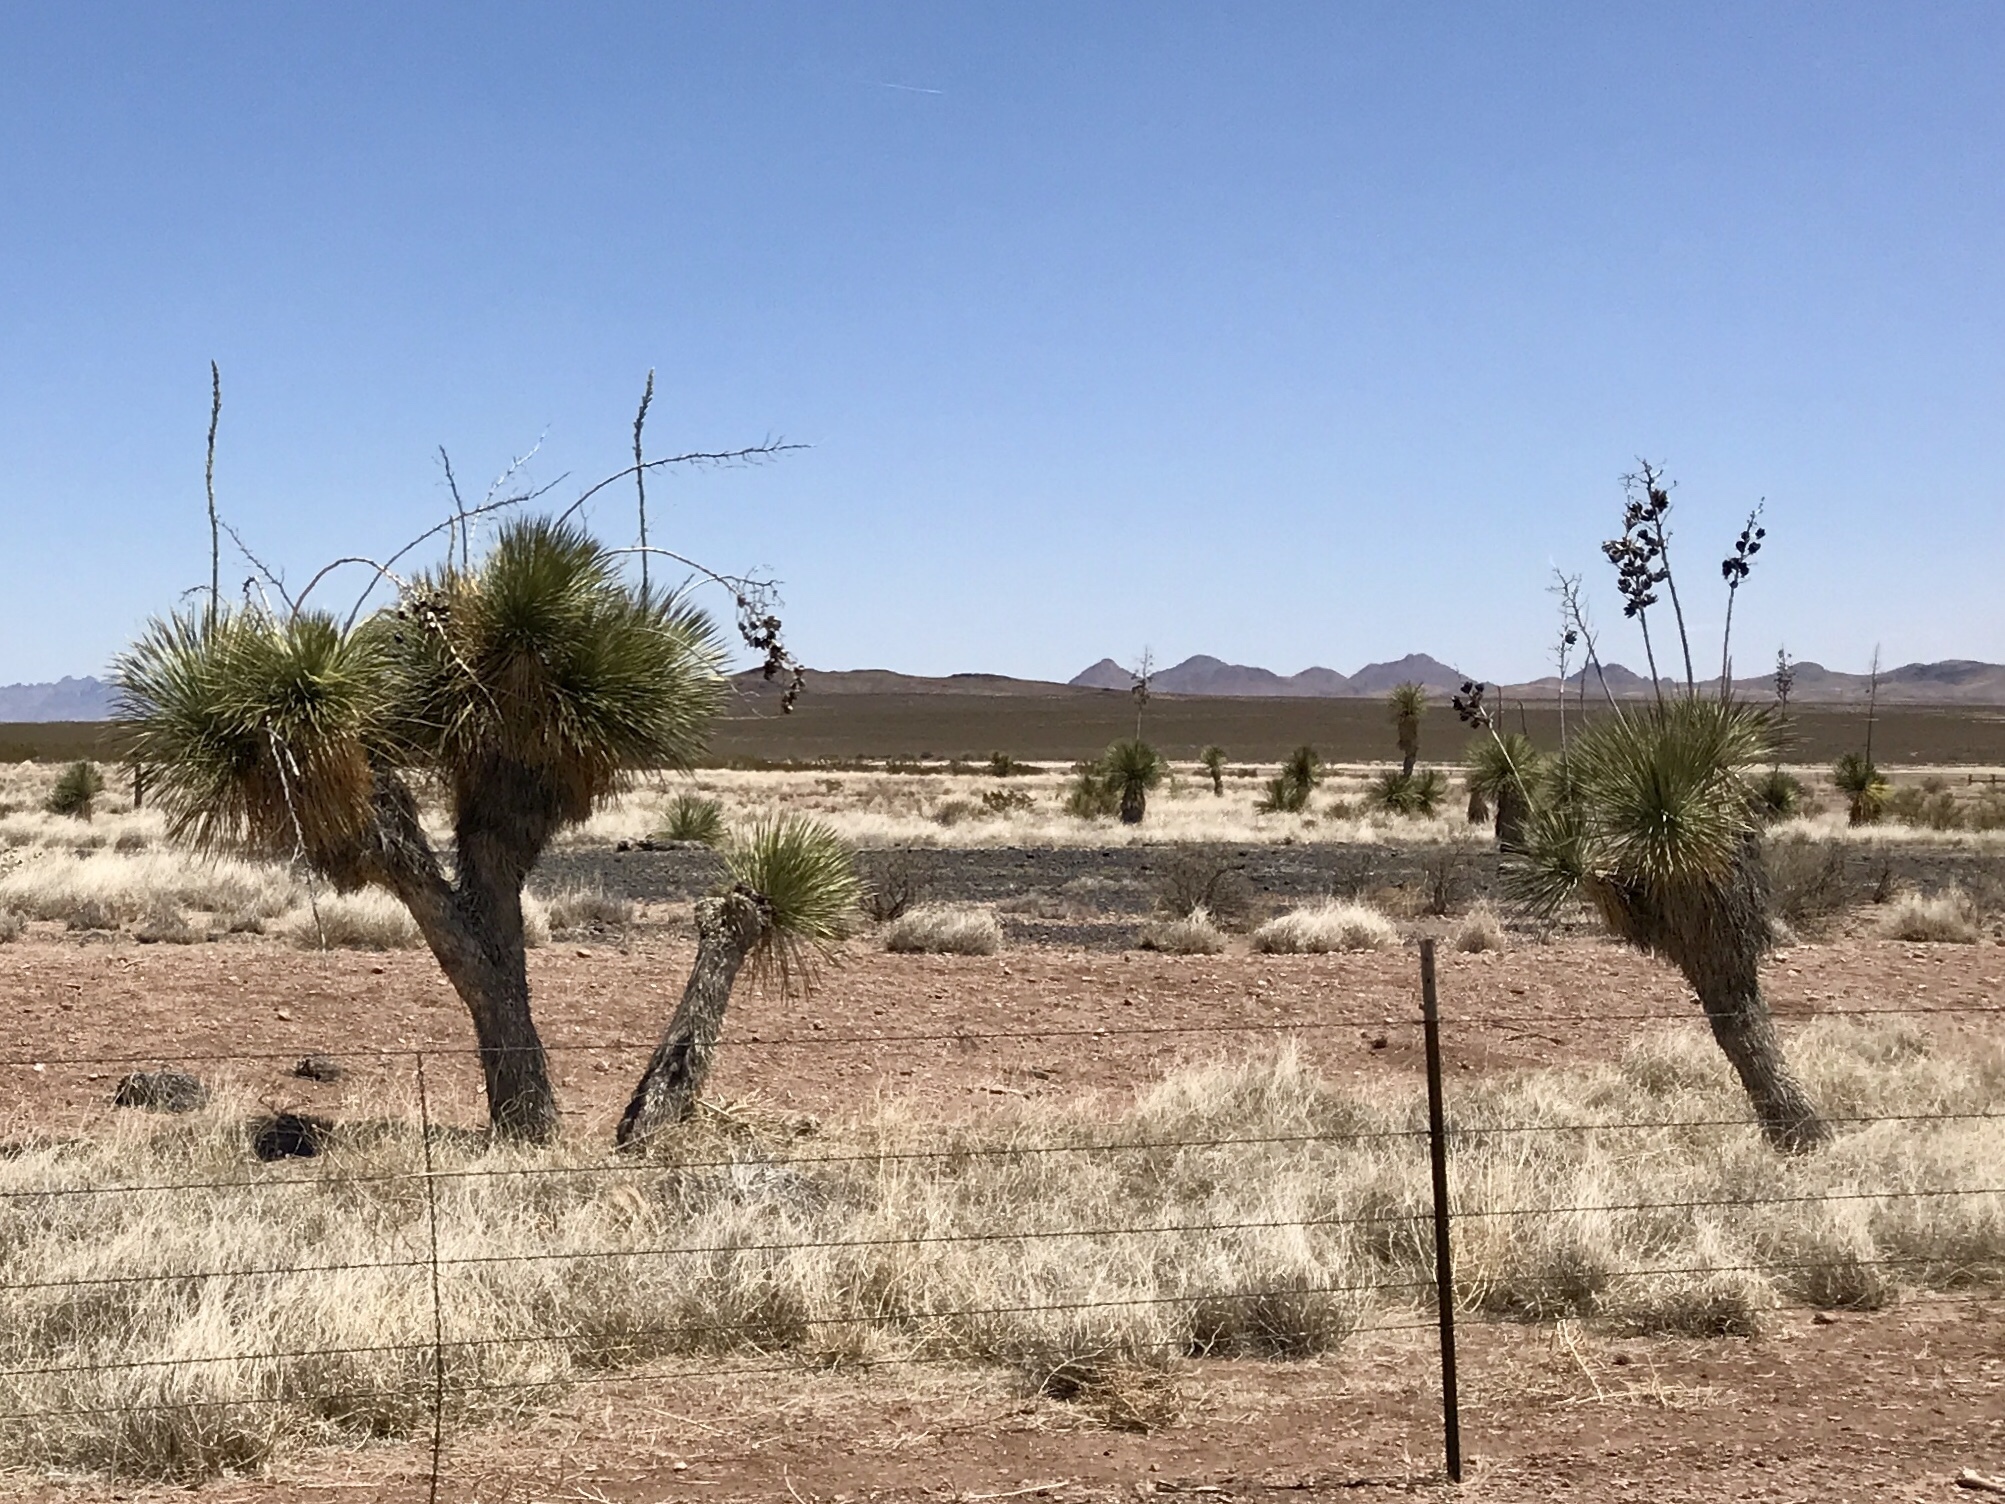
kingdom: Plantae
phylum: Tracheophyta
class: Liliopsida
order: Asparagales
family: Asparagaceae
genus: Yucca
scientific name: Yucca elata
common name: Palmella
